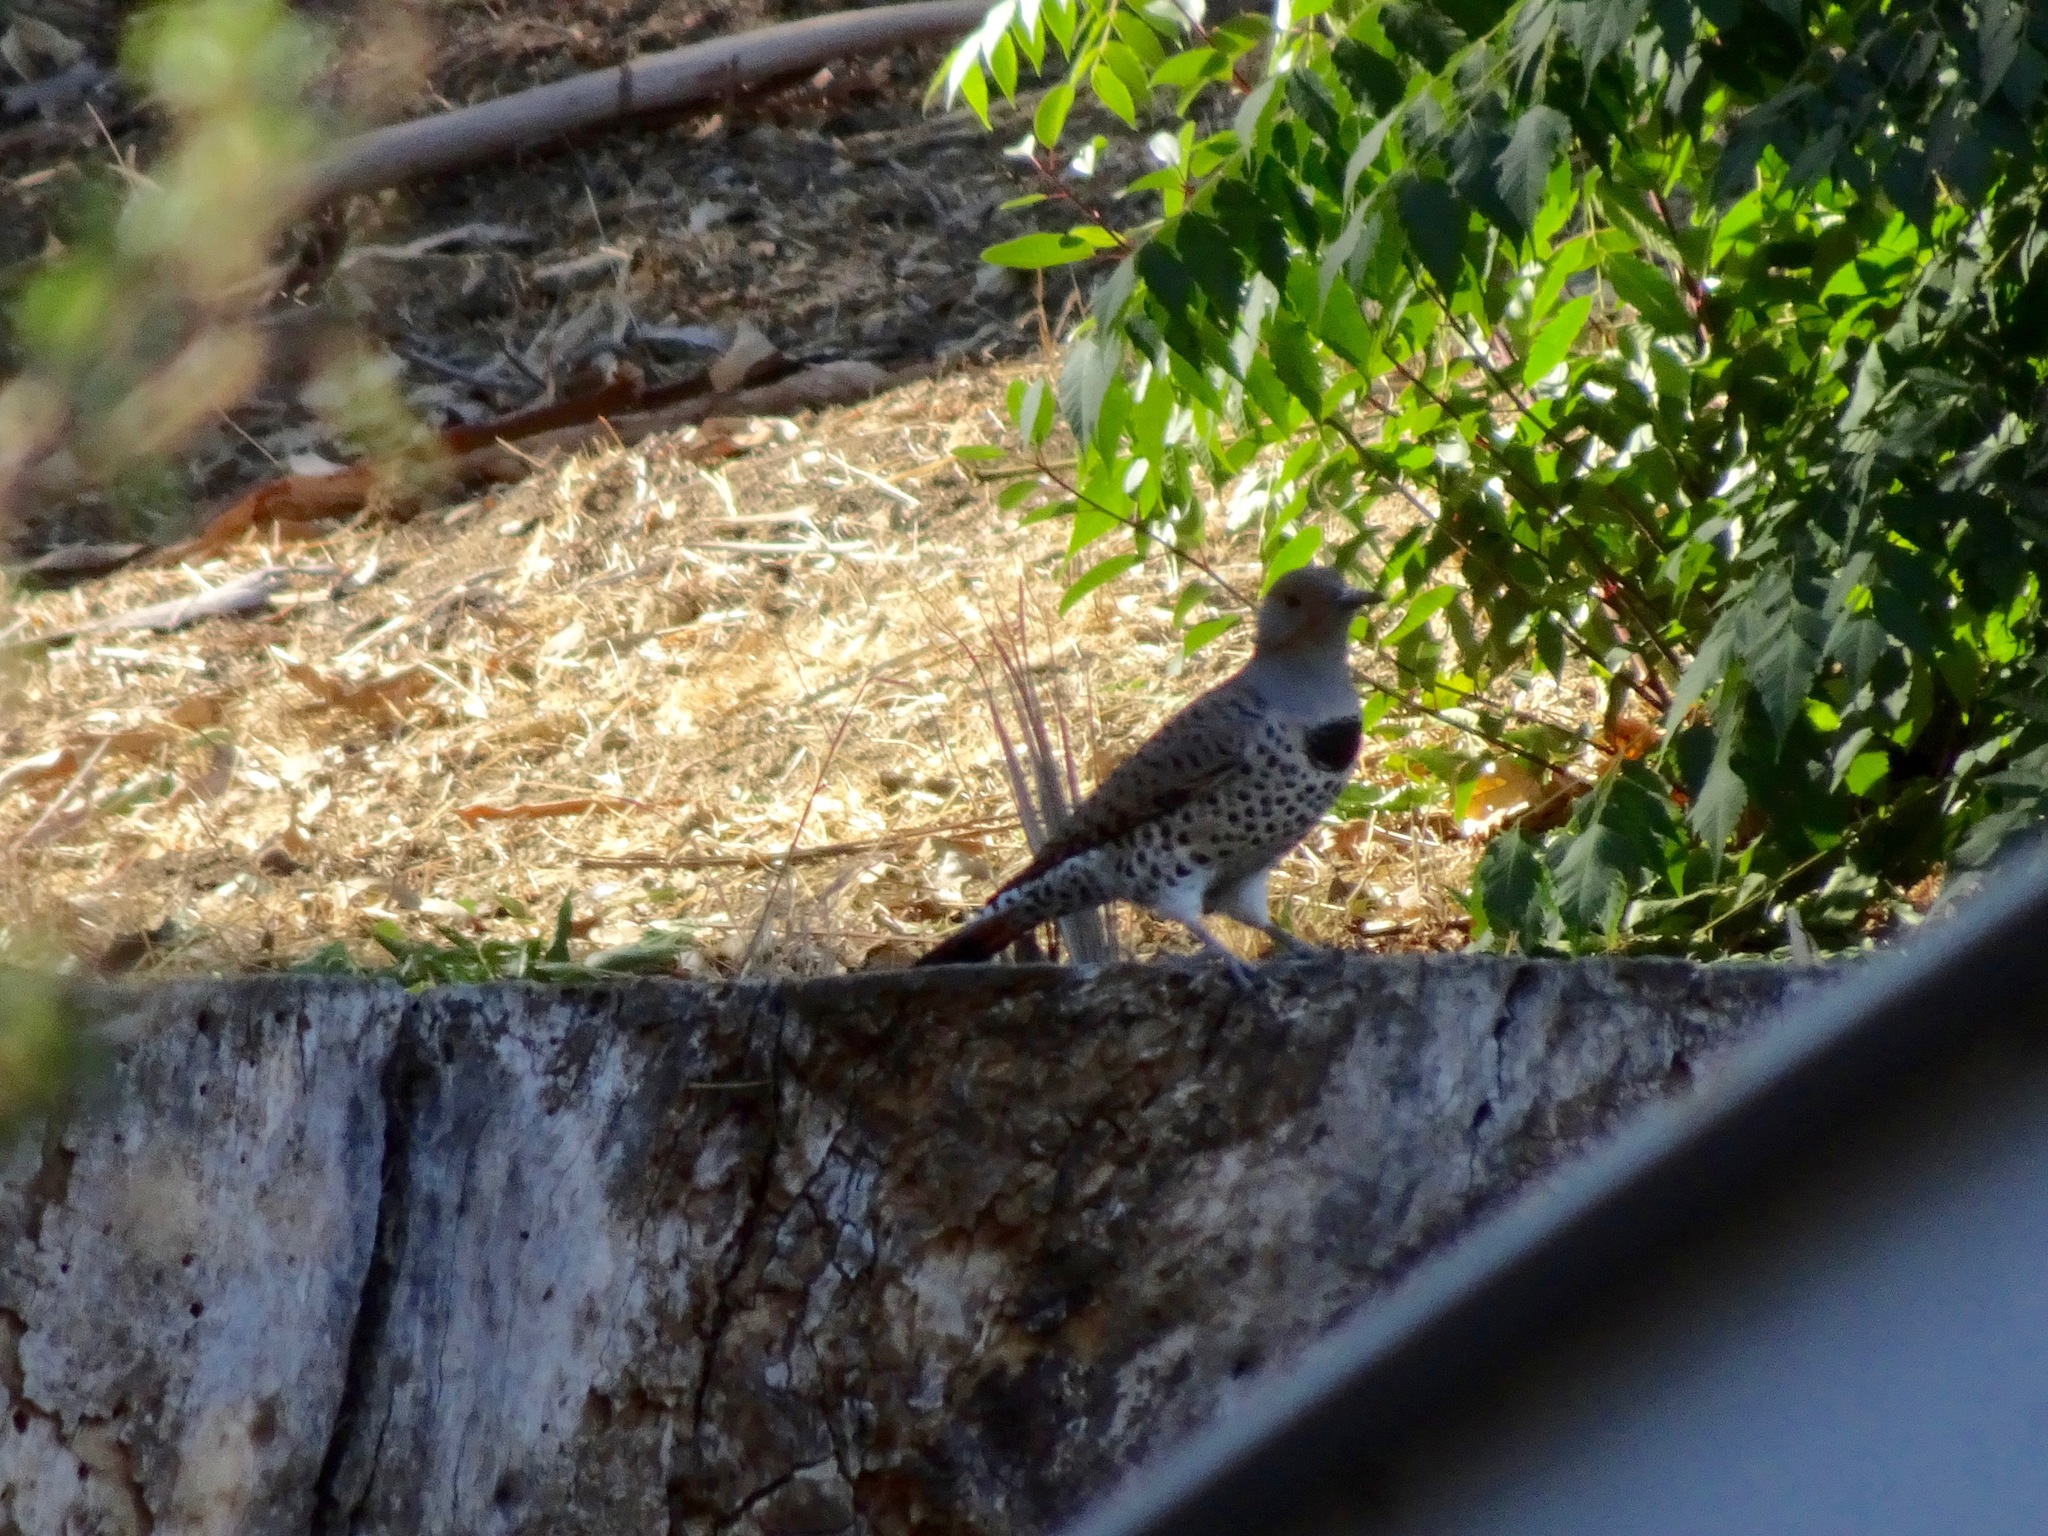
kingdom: Animalia
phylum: Chordata
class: Aves
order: Piciformes
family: Picidae
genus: Colaptes
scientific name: Colaptes auratus
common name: Northern flicker
